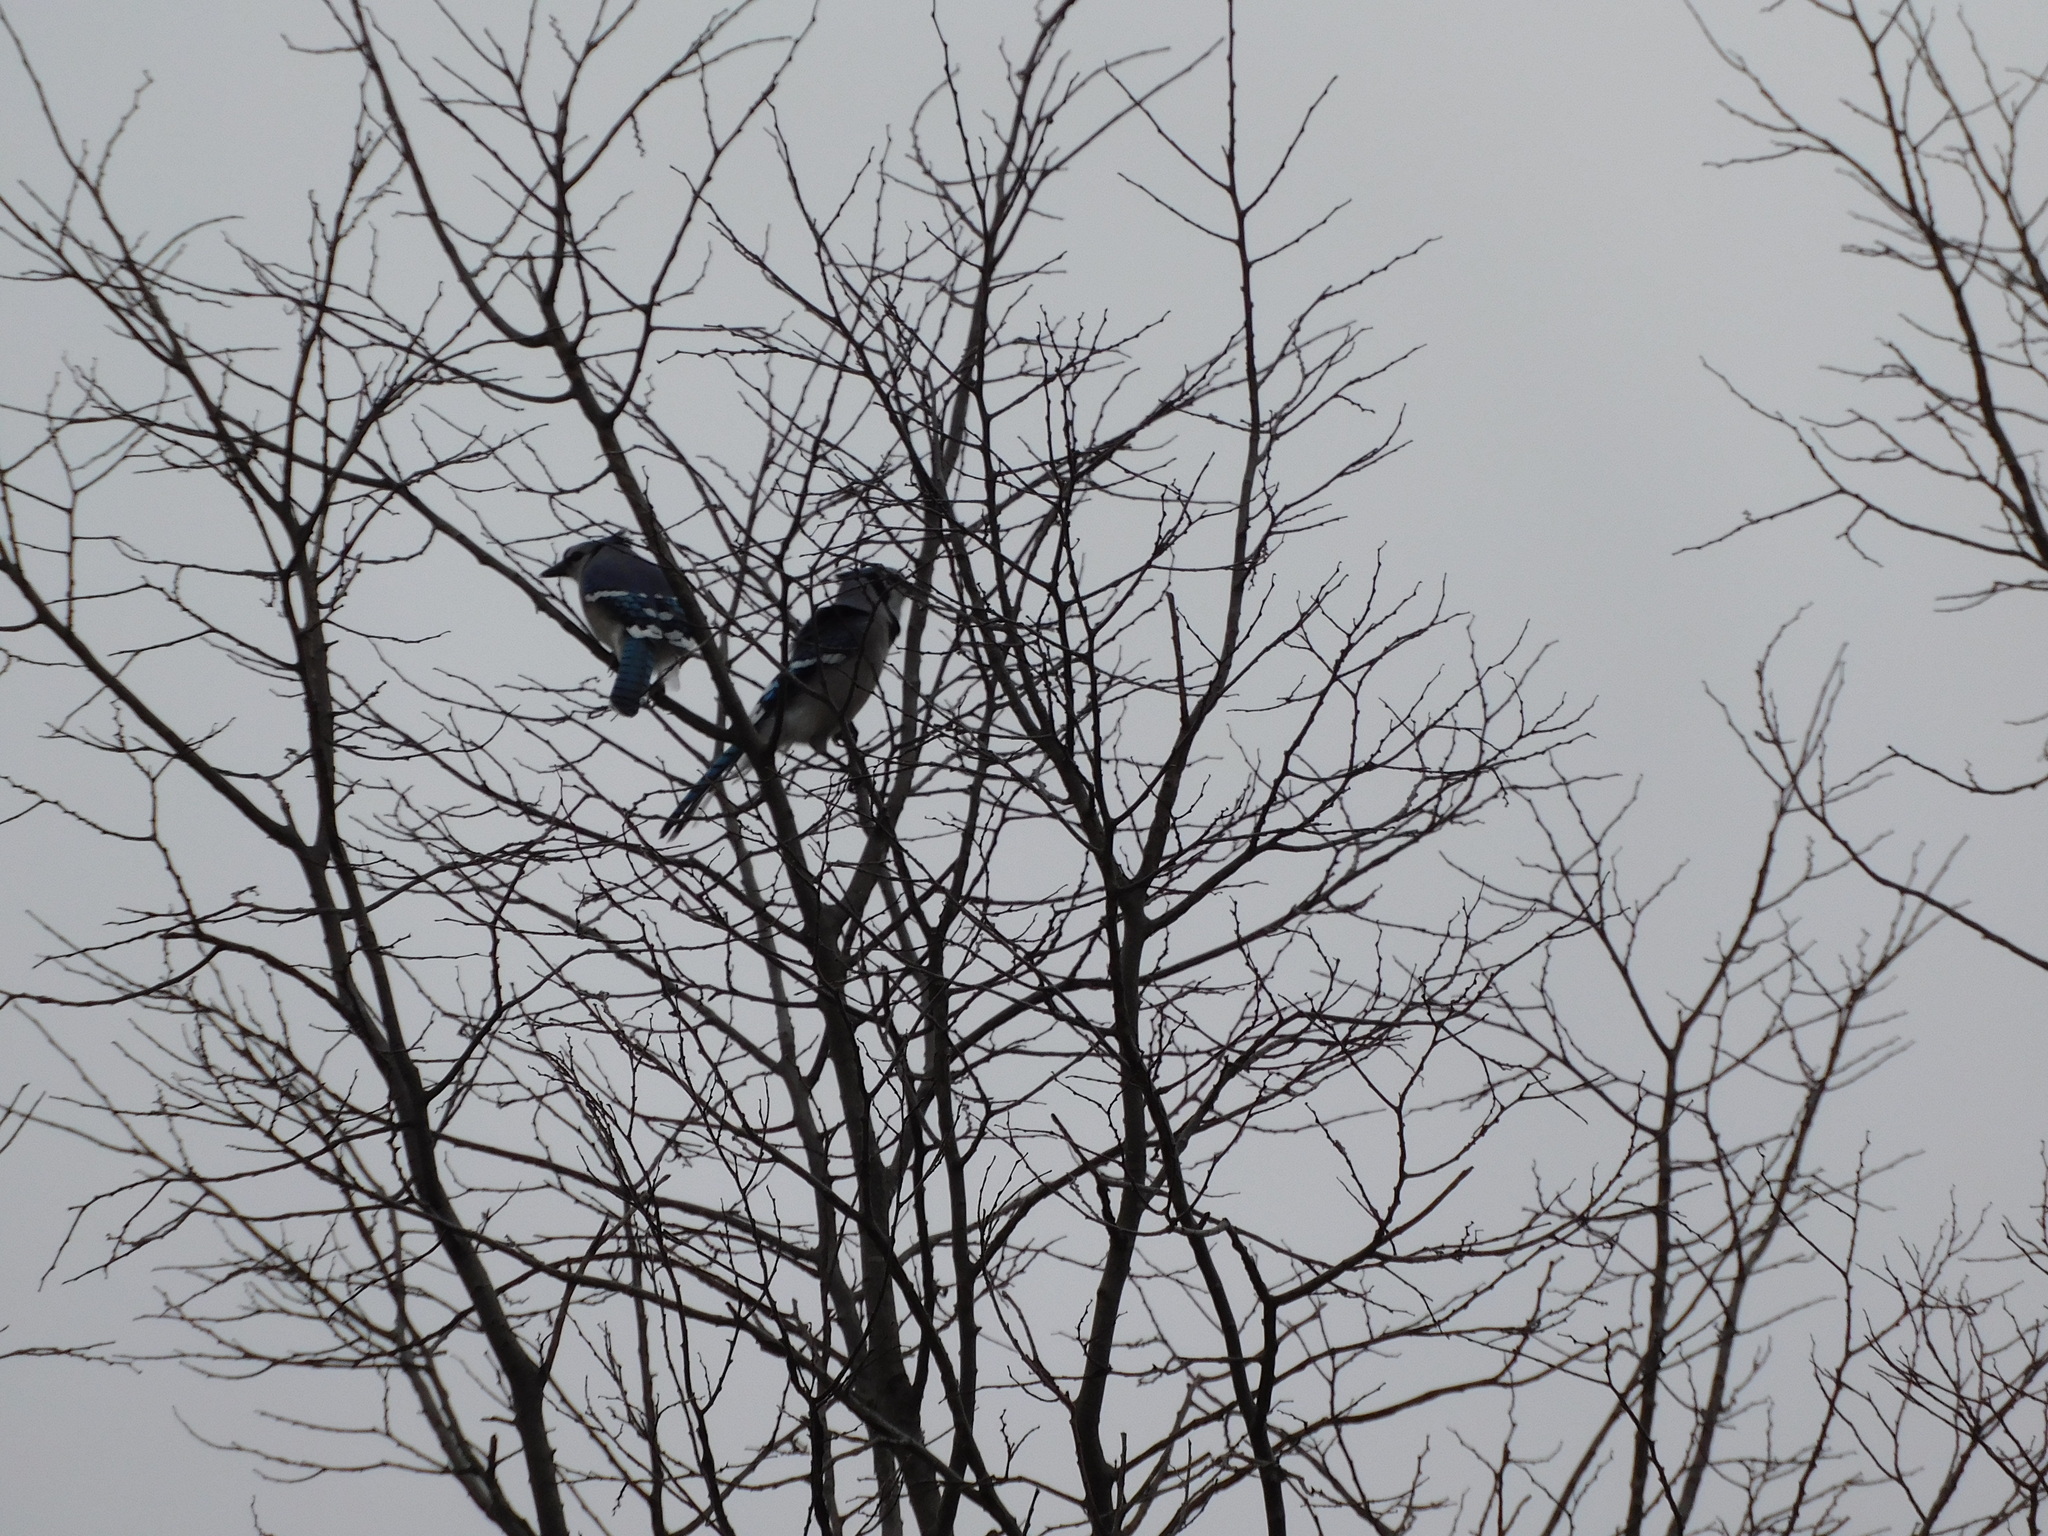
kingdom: Animalia
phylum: Chordata
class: Aves
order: Passeriformes
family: Corvidae
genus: Cyanocitta
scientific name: Cyanocitta cristata
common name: Blue jay
